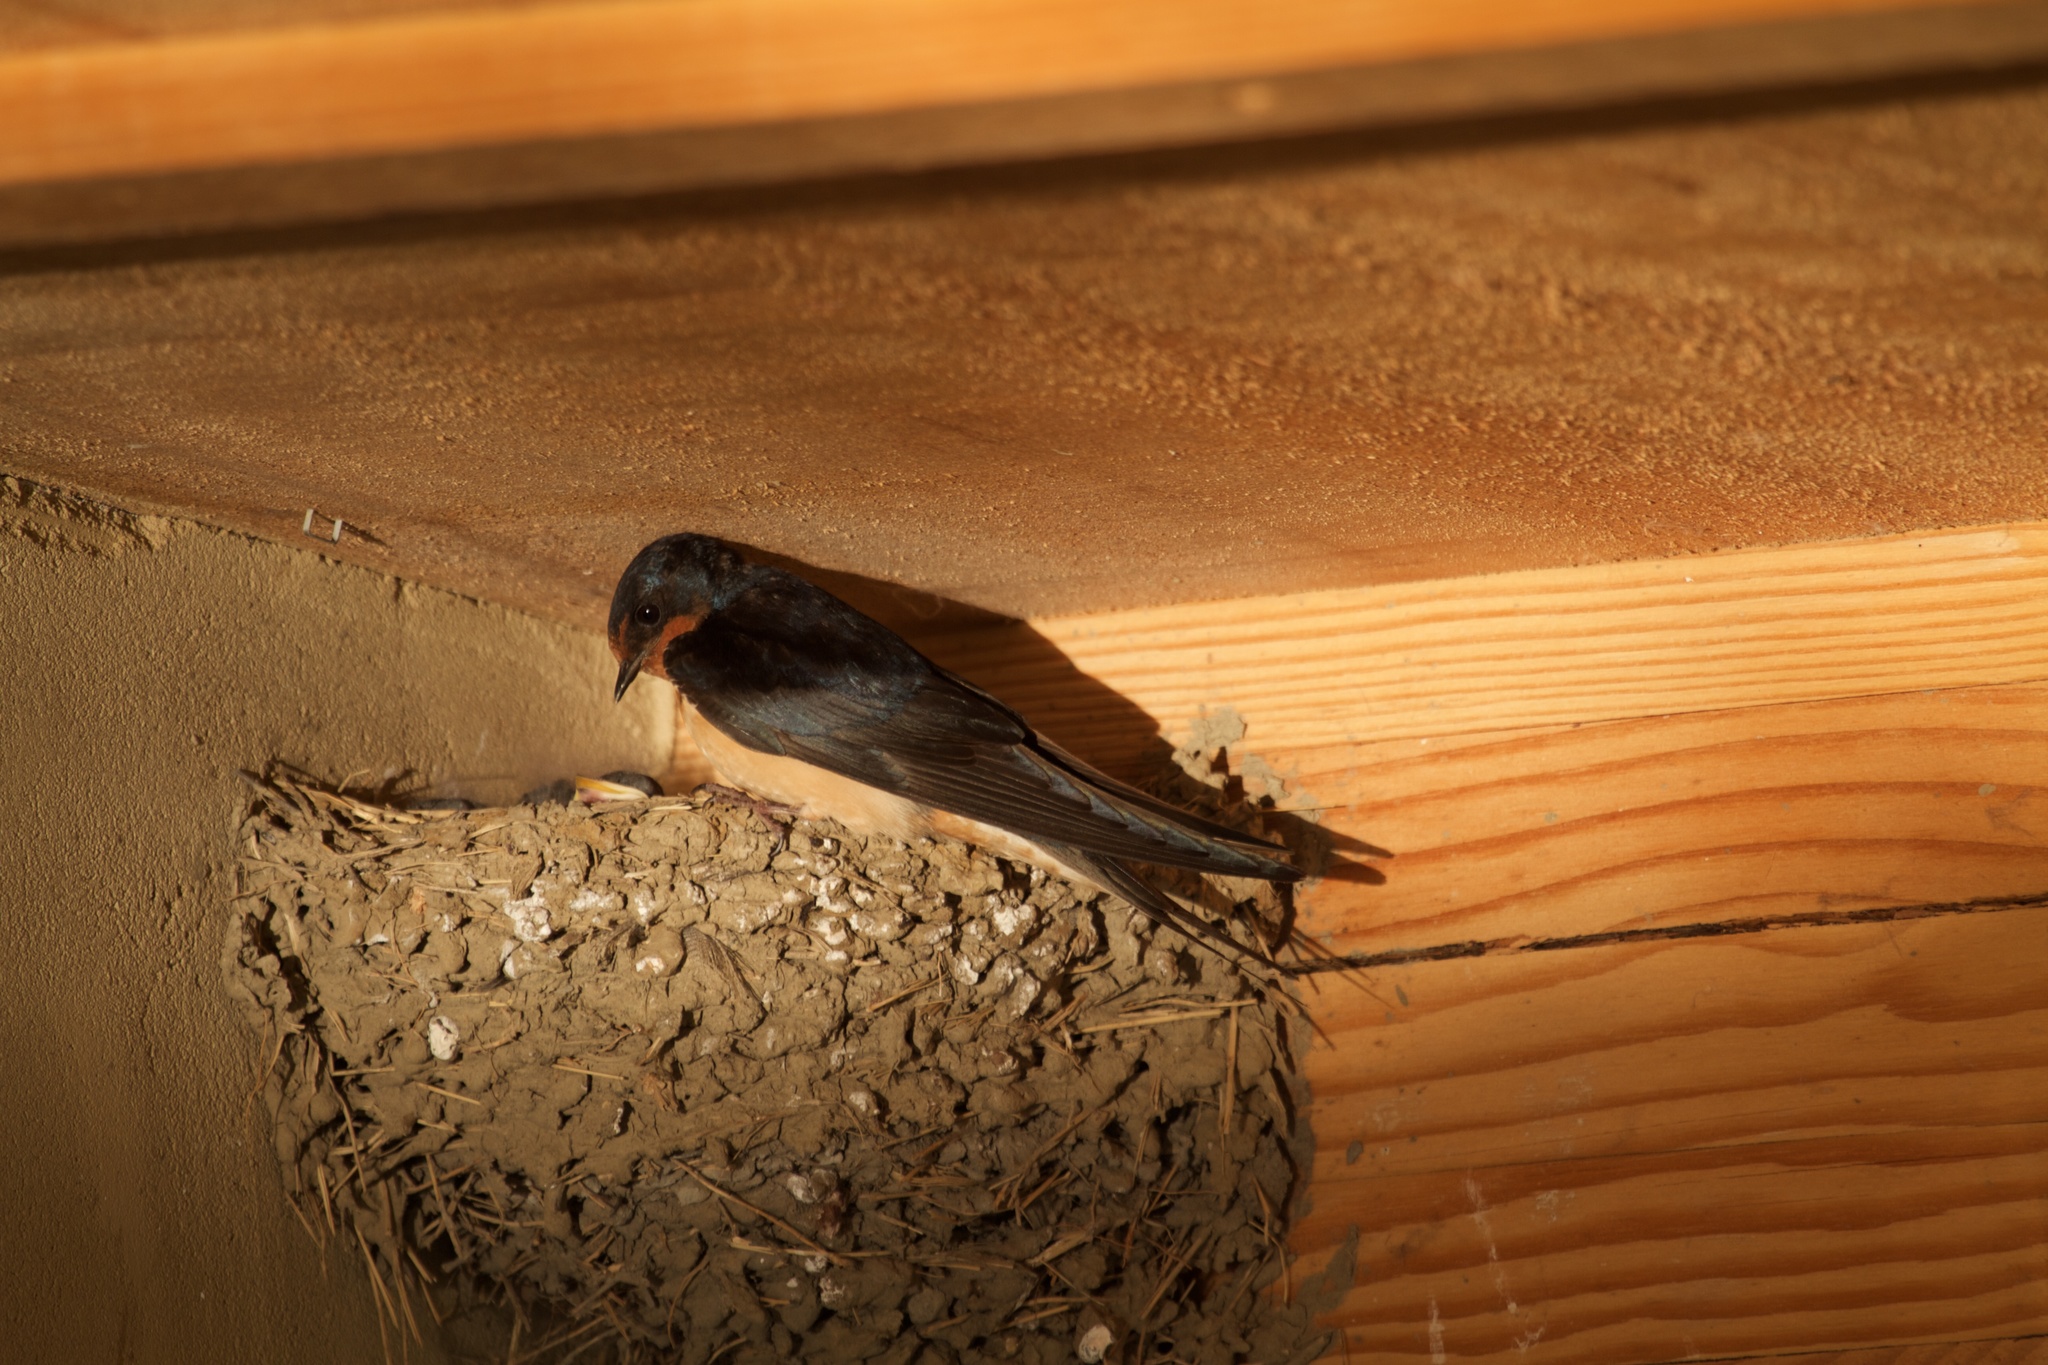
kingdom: Animalia
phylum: Chordata
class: Aves
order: Passeriformes
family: Hirundinidae
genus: Hirundo
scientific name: Hirundo rustica
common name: Barn swallow
